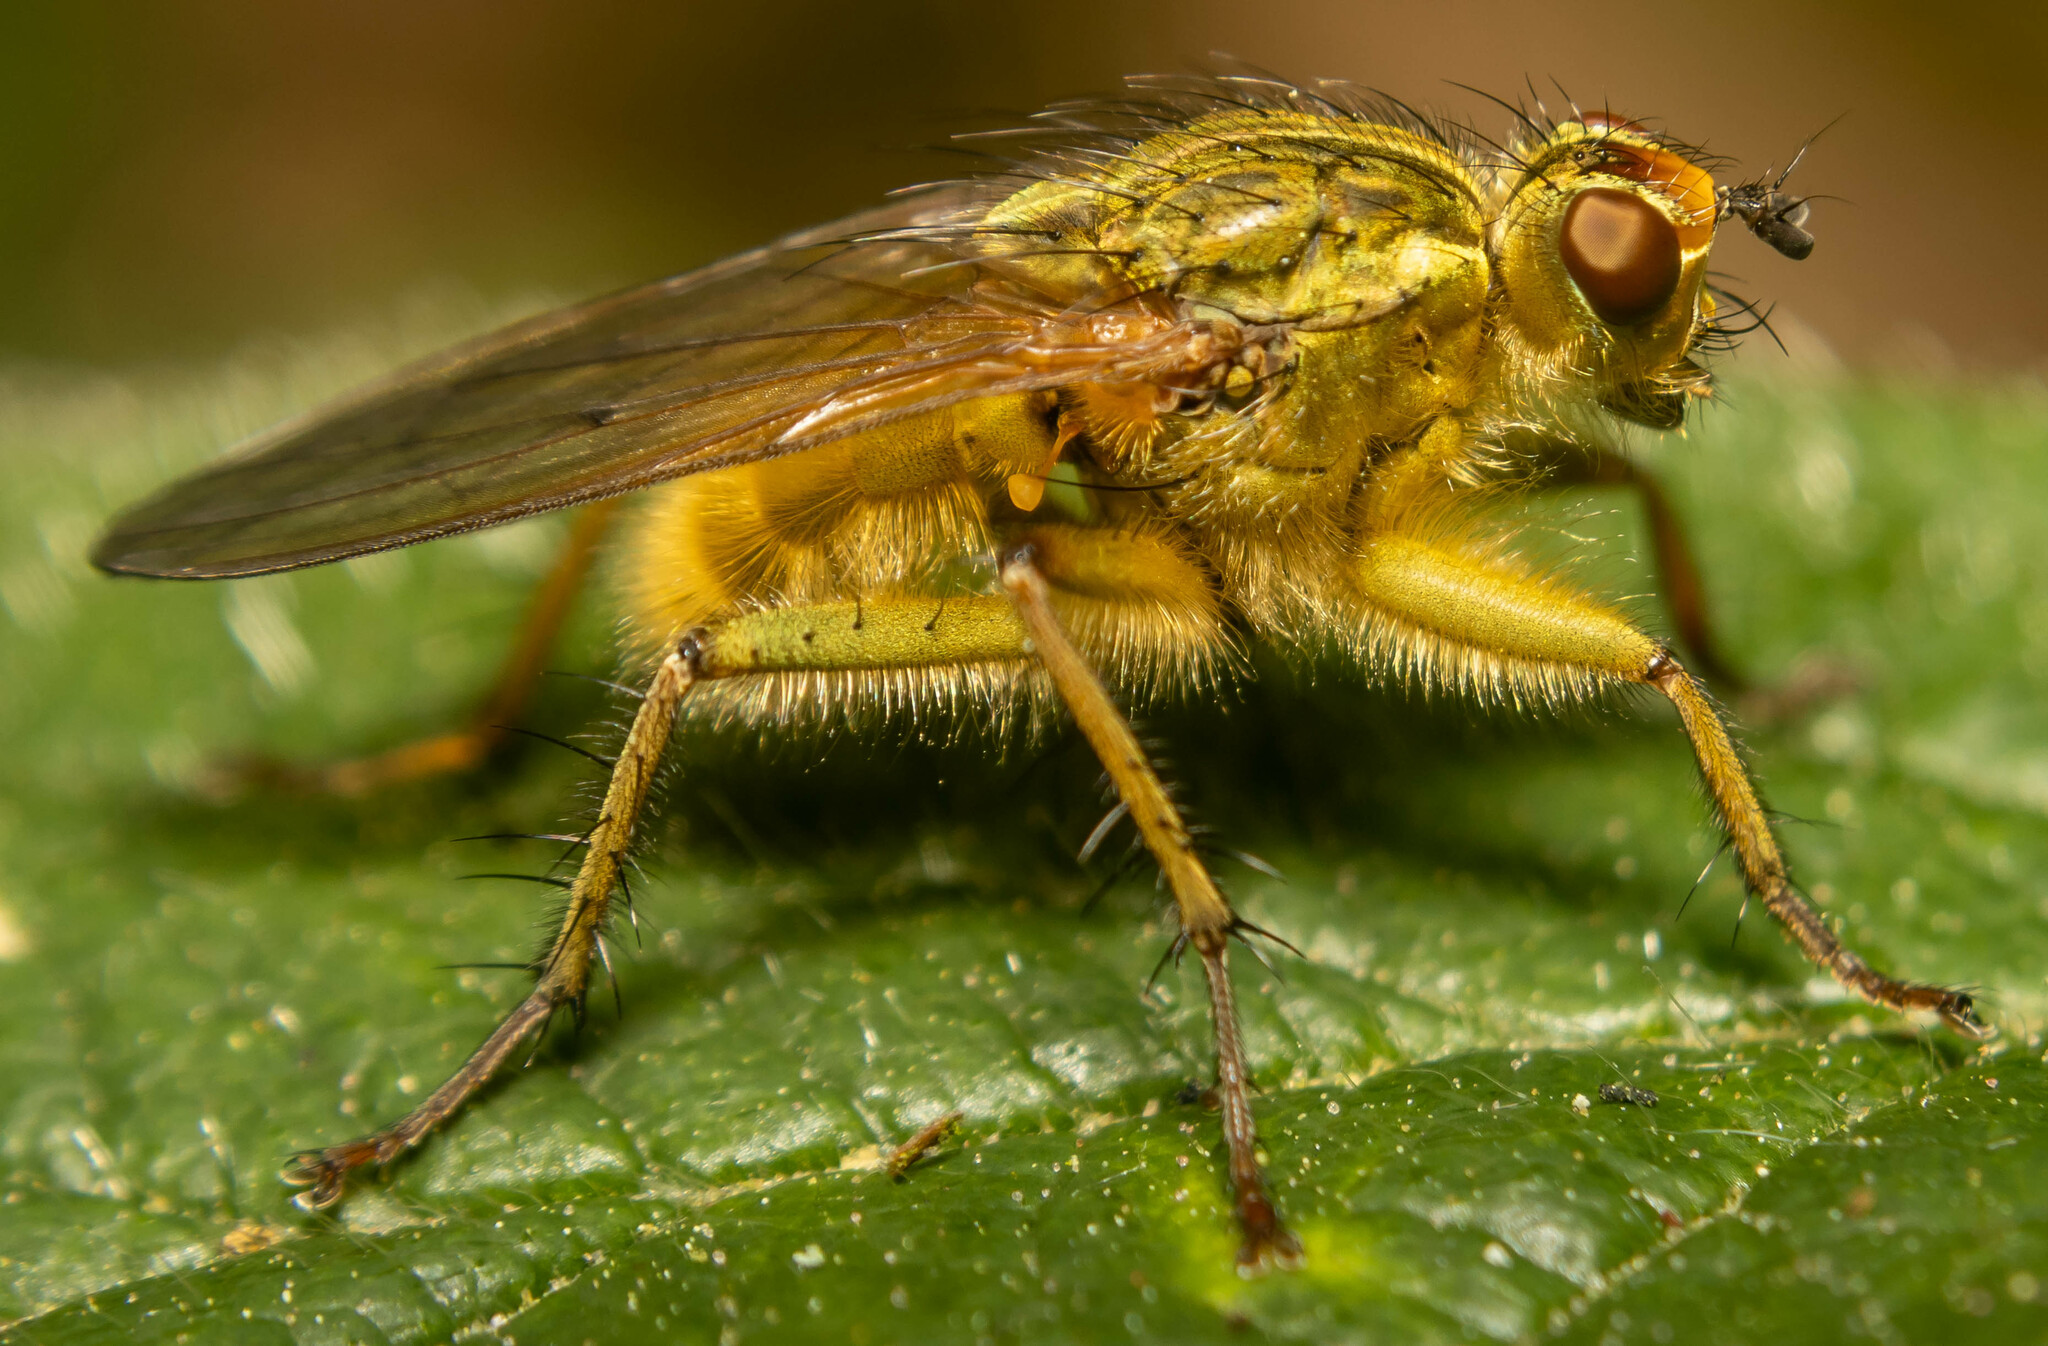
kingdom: Animalia
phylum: Arthropoda
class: Insecta
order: Diptera
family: Scathophagidae
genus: Scathophaga
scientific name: Scathophaga stercoraria
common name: Yellow dung fly
